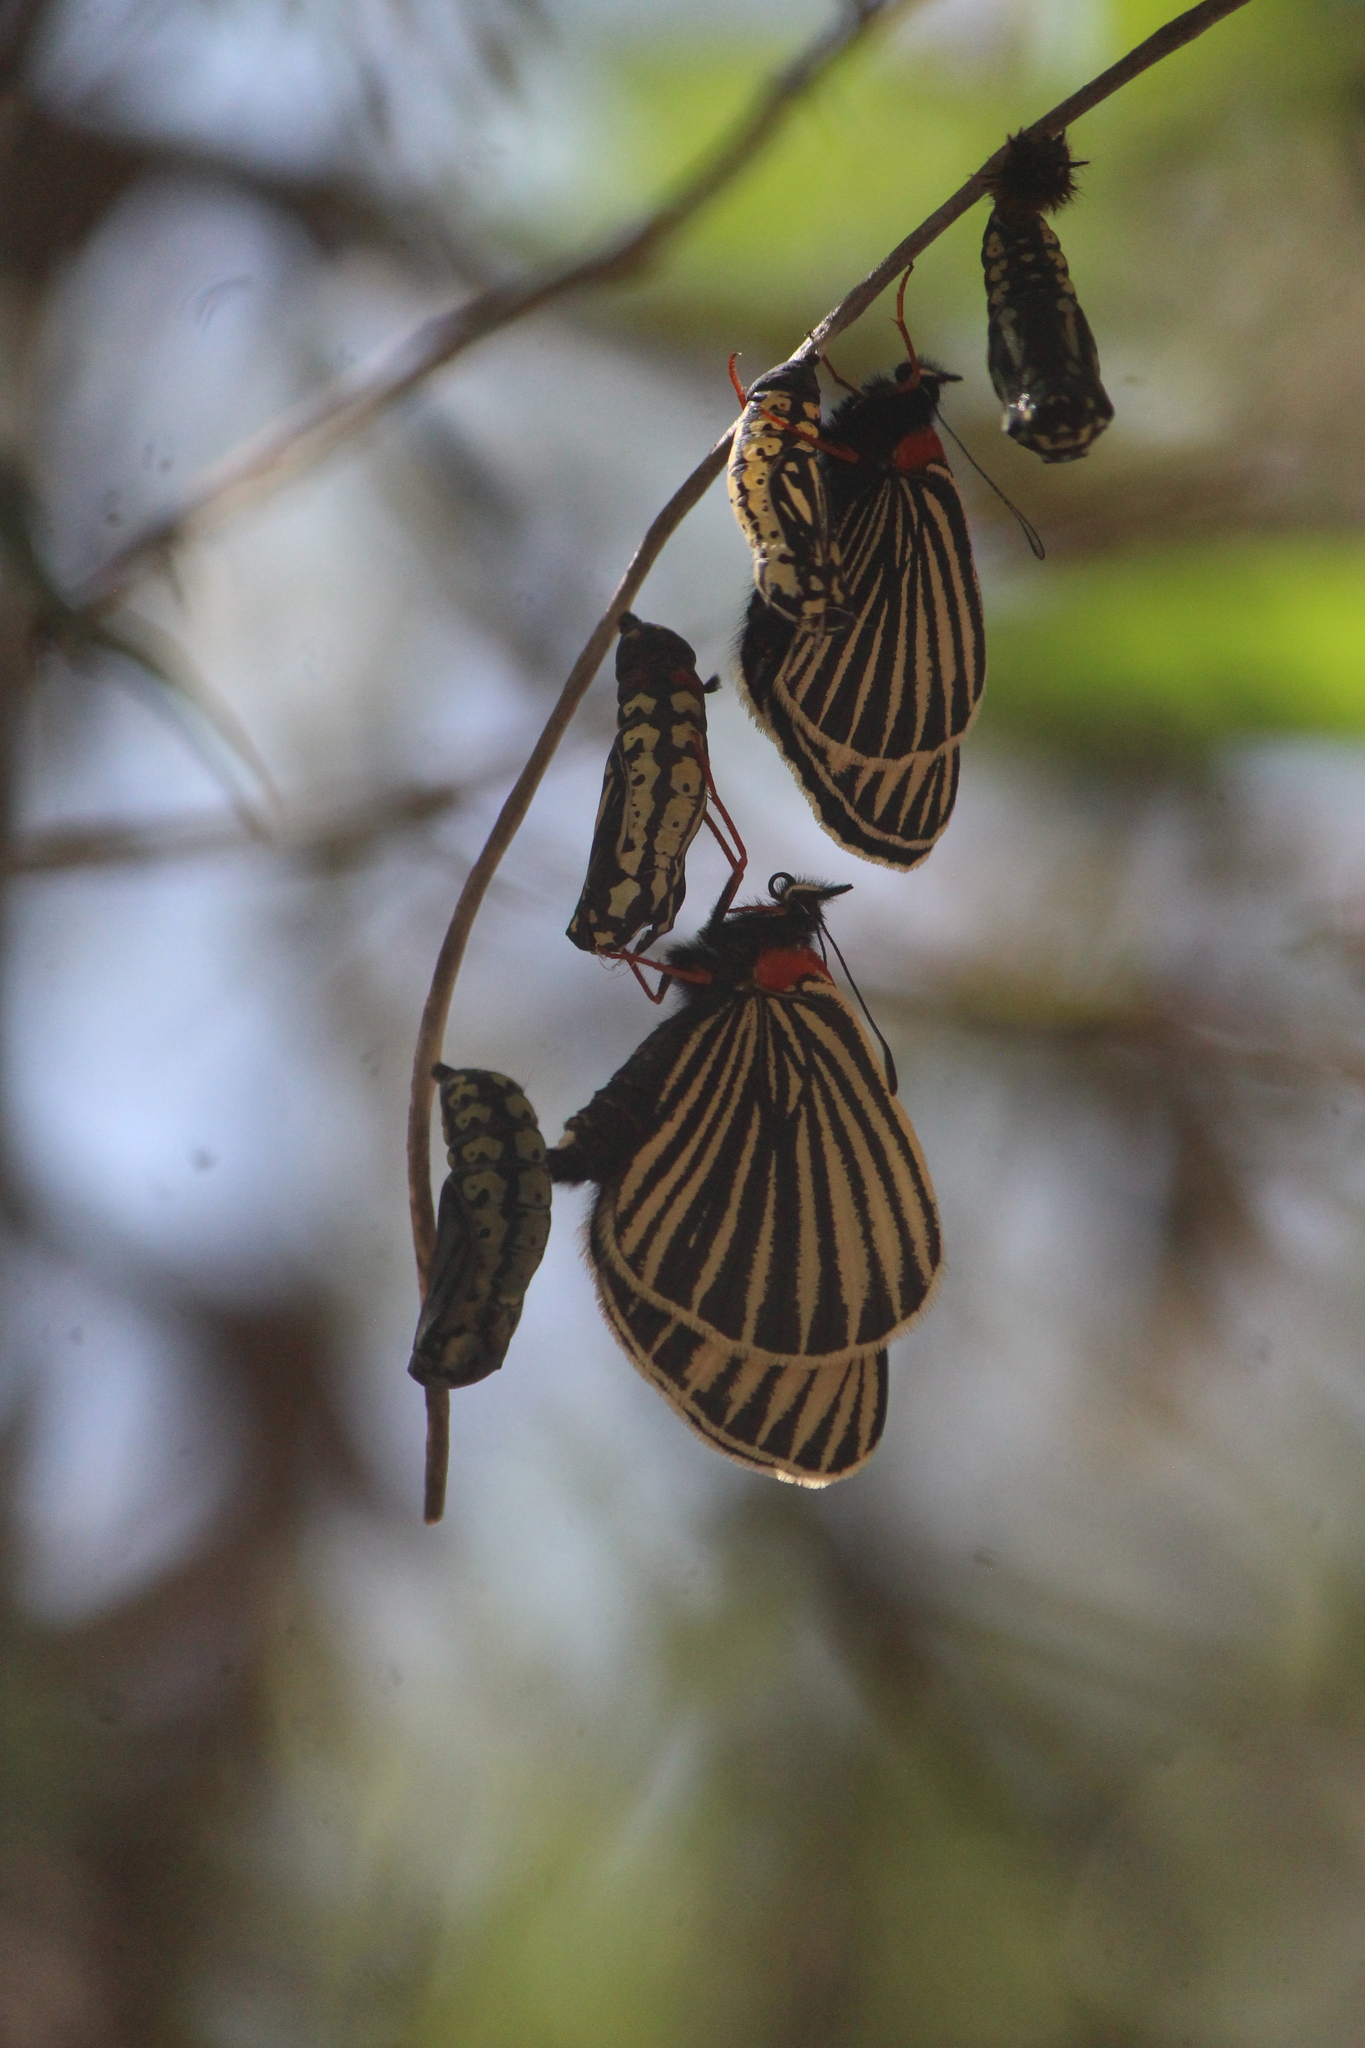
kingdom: Animalia
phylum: Arthropoda
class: Insecta
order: Lepidoptera
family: Nymphalidae
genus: Chlosyne
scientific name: Chlosyne ehrenbergii
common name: White-rayed patch
